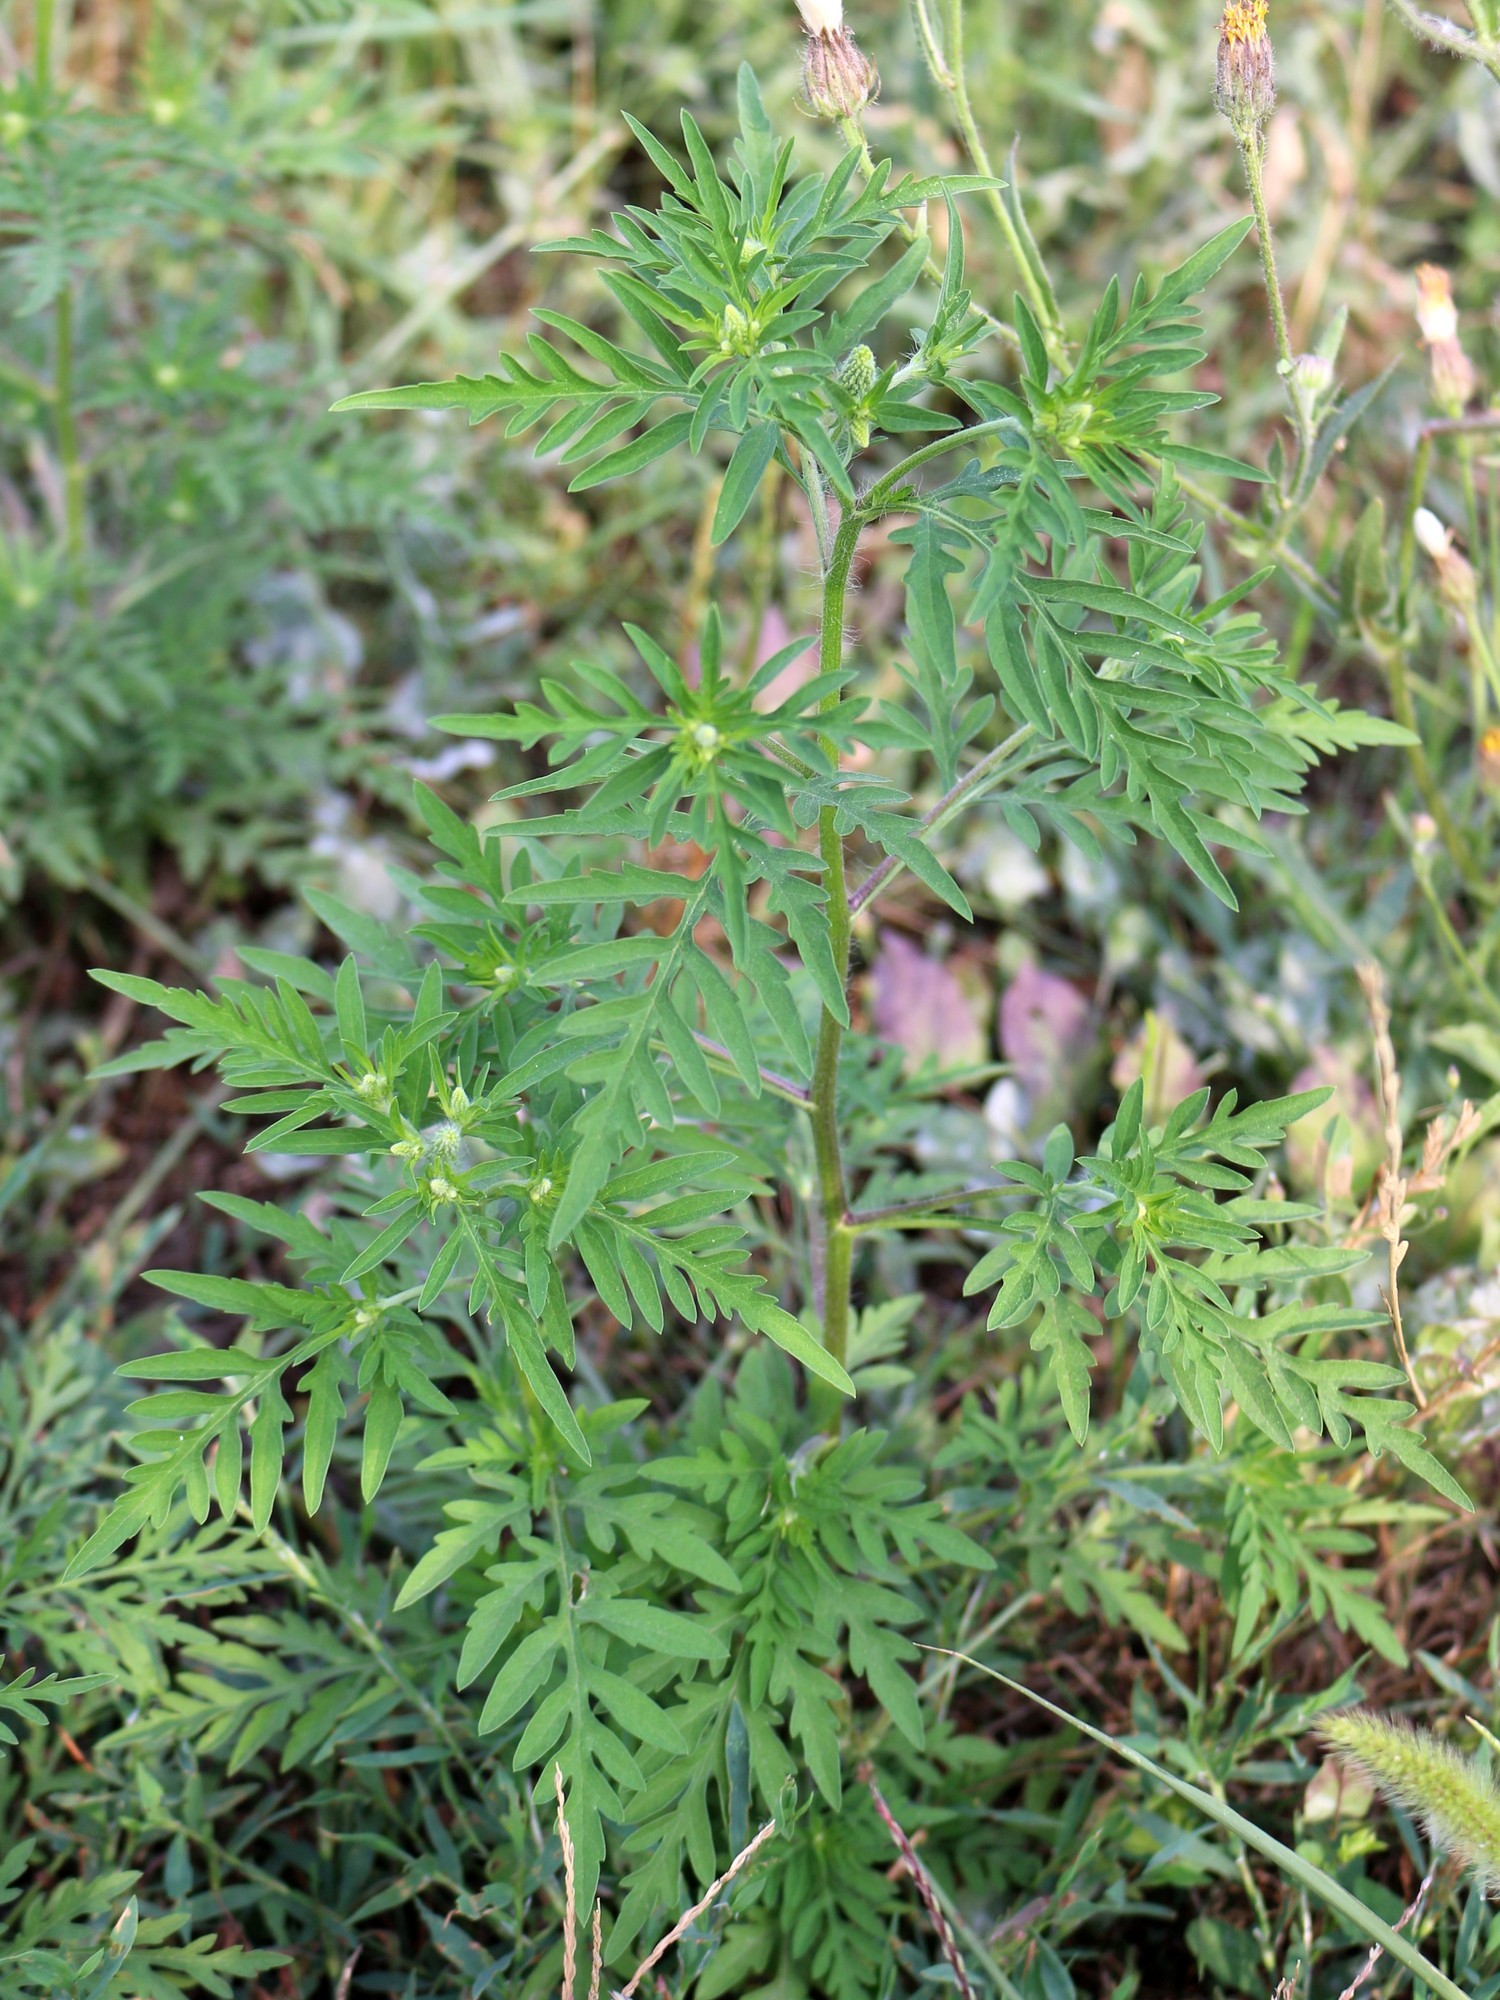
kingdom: Plantae
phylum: Tracheophyta
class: Magnoliopsida
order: Asterales
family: Asteraceae
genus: Ambrosia
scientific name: Ambrosia artemisiifolia
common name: Annual ragweed
